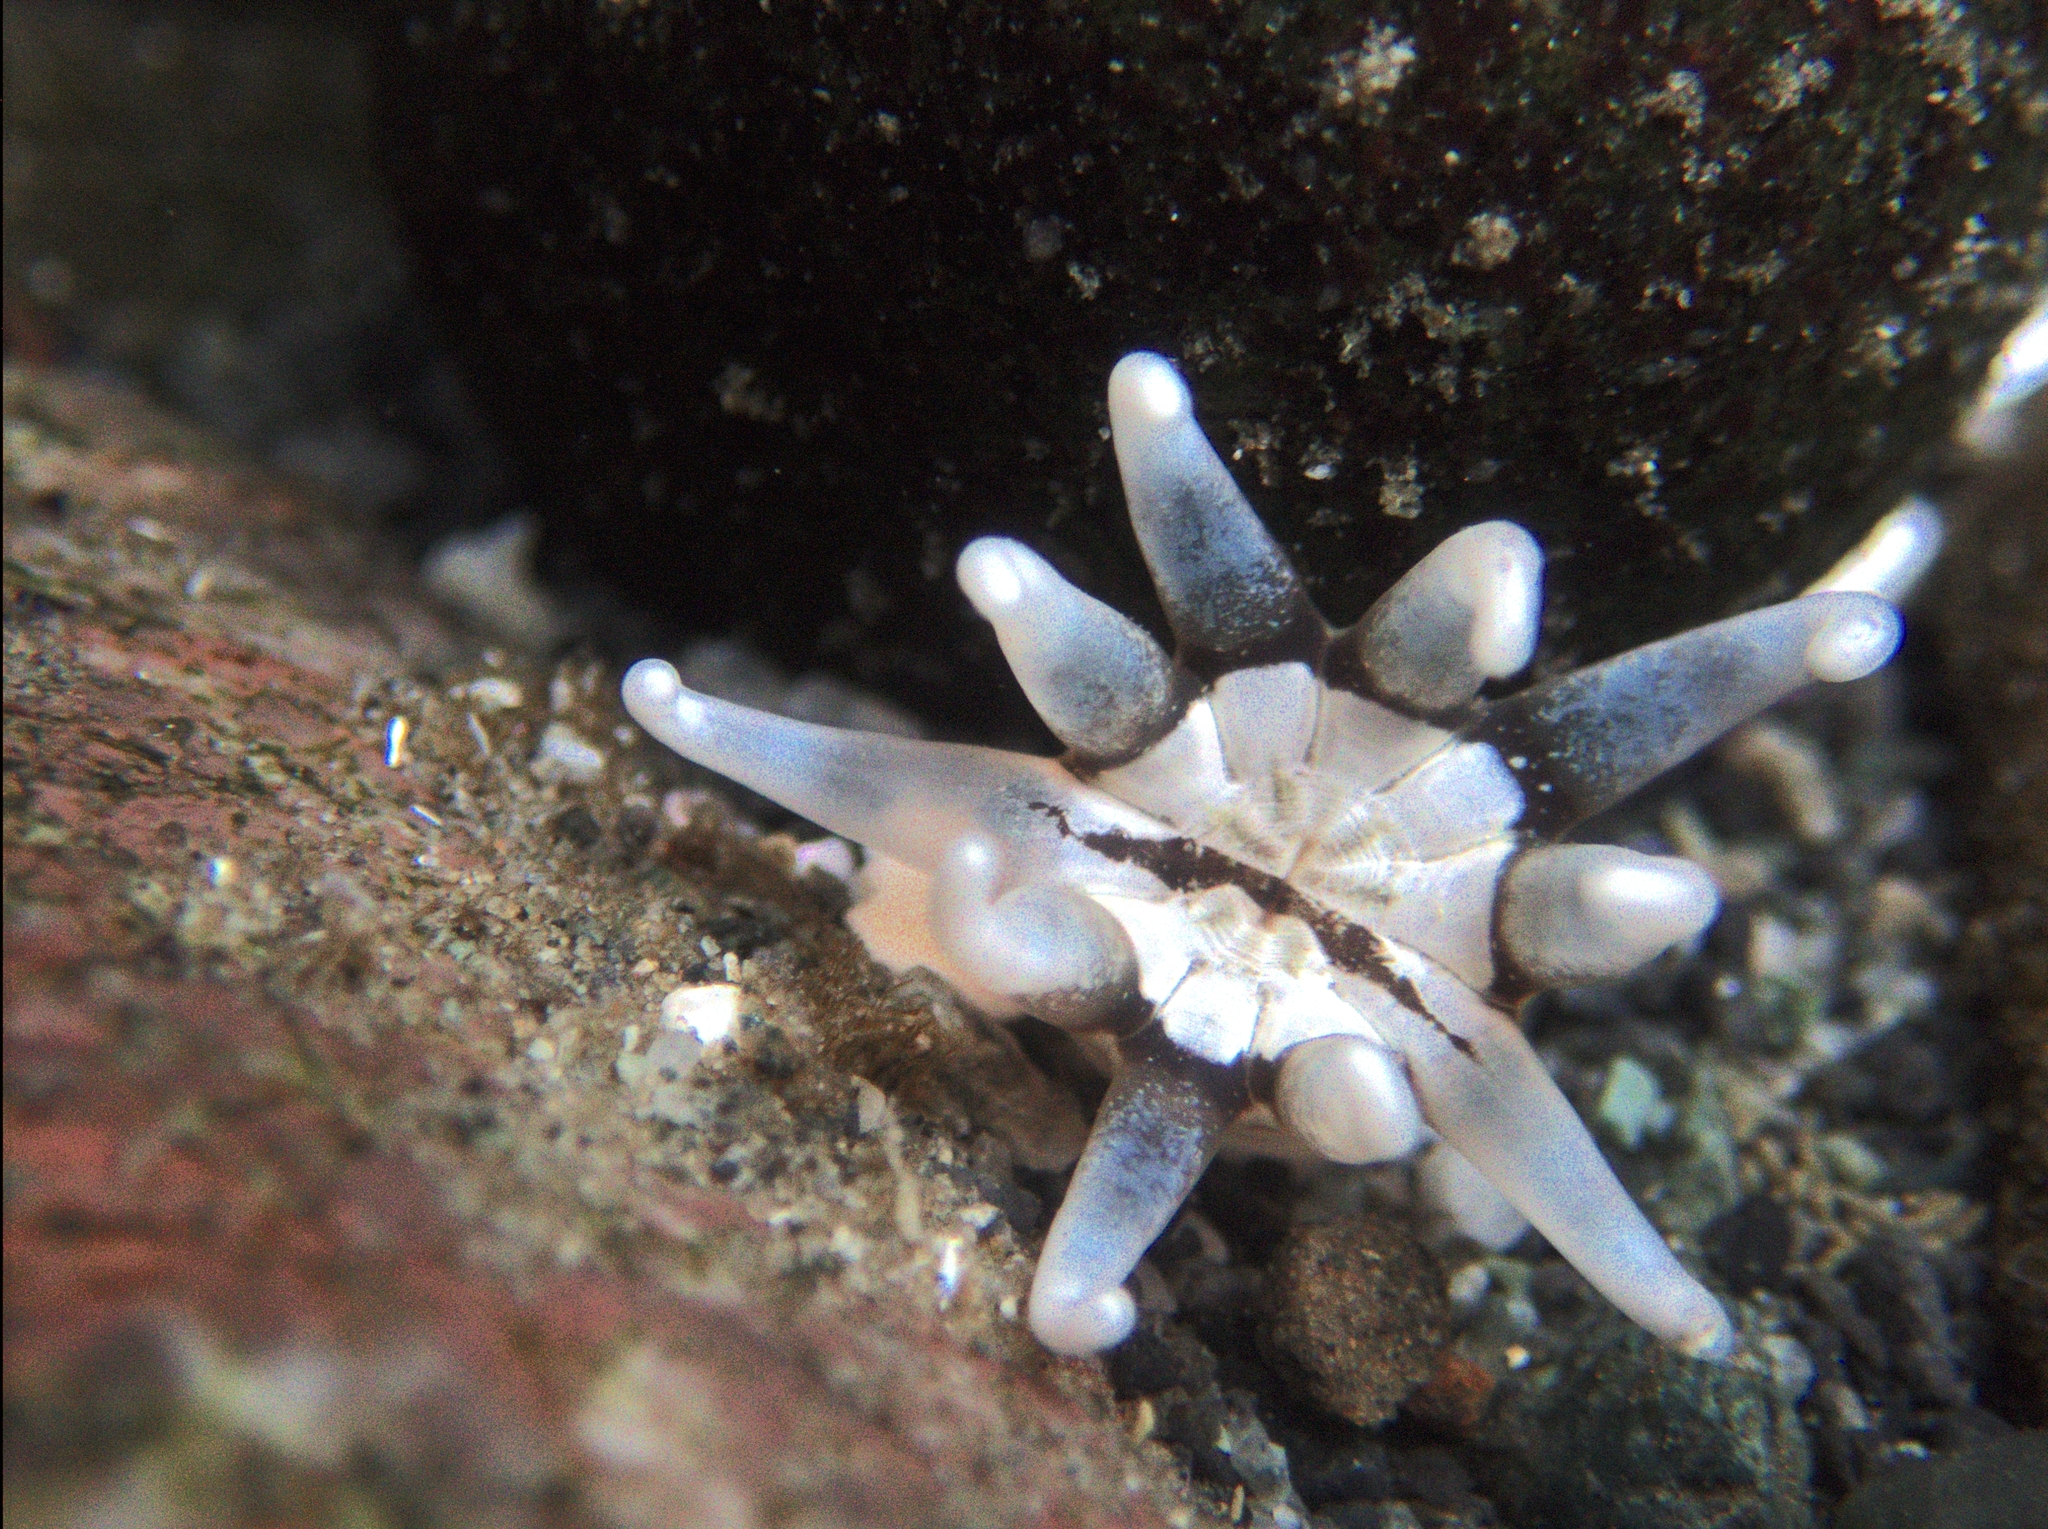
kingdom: Animalia
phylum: Cnidaria
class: Anthozoa
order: Actiniaria
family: Halcampidae
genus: Halcampa
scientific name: Halcampa decemtentaculata
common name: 10-tentacle burrowing anemone
